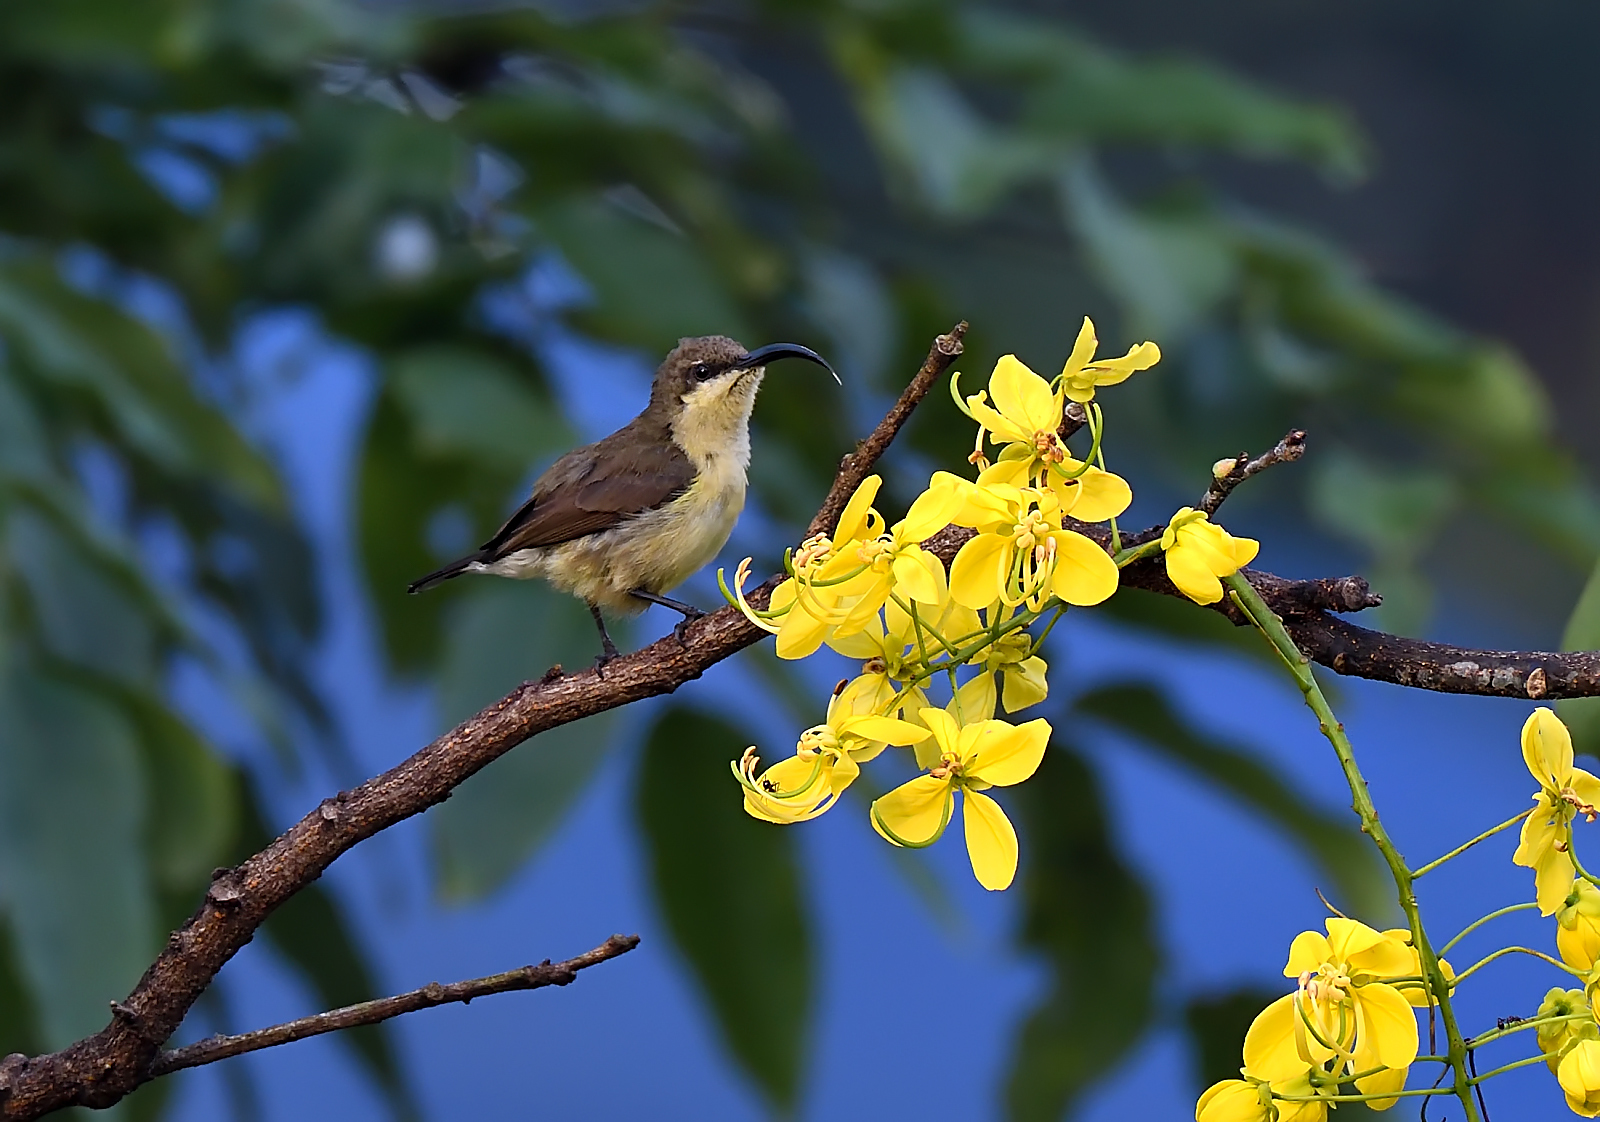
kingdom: Animalia
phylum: Chordata
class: Aves
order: Passeriformes
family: Nectariniidae
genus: Cinnyris
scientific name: Cinnyris lotenius
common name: Loten's sunbird
